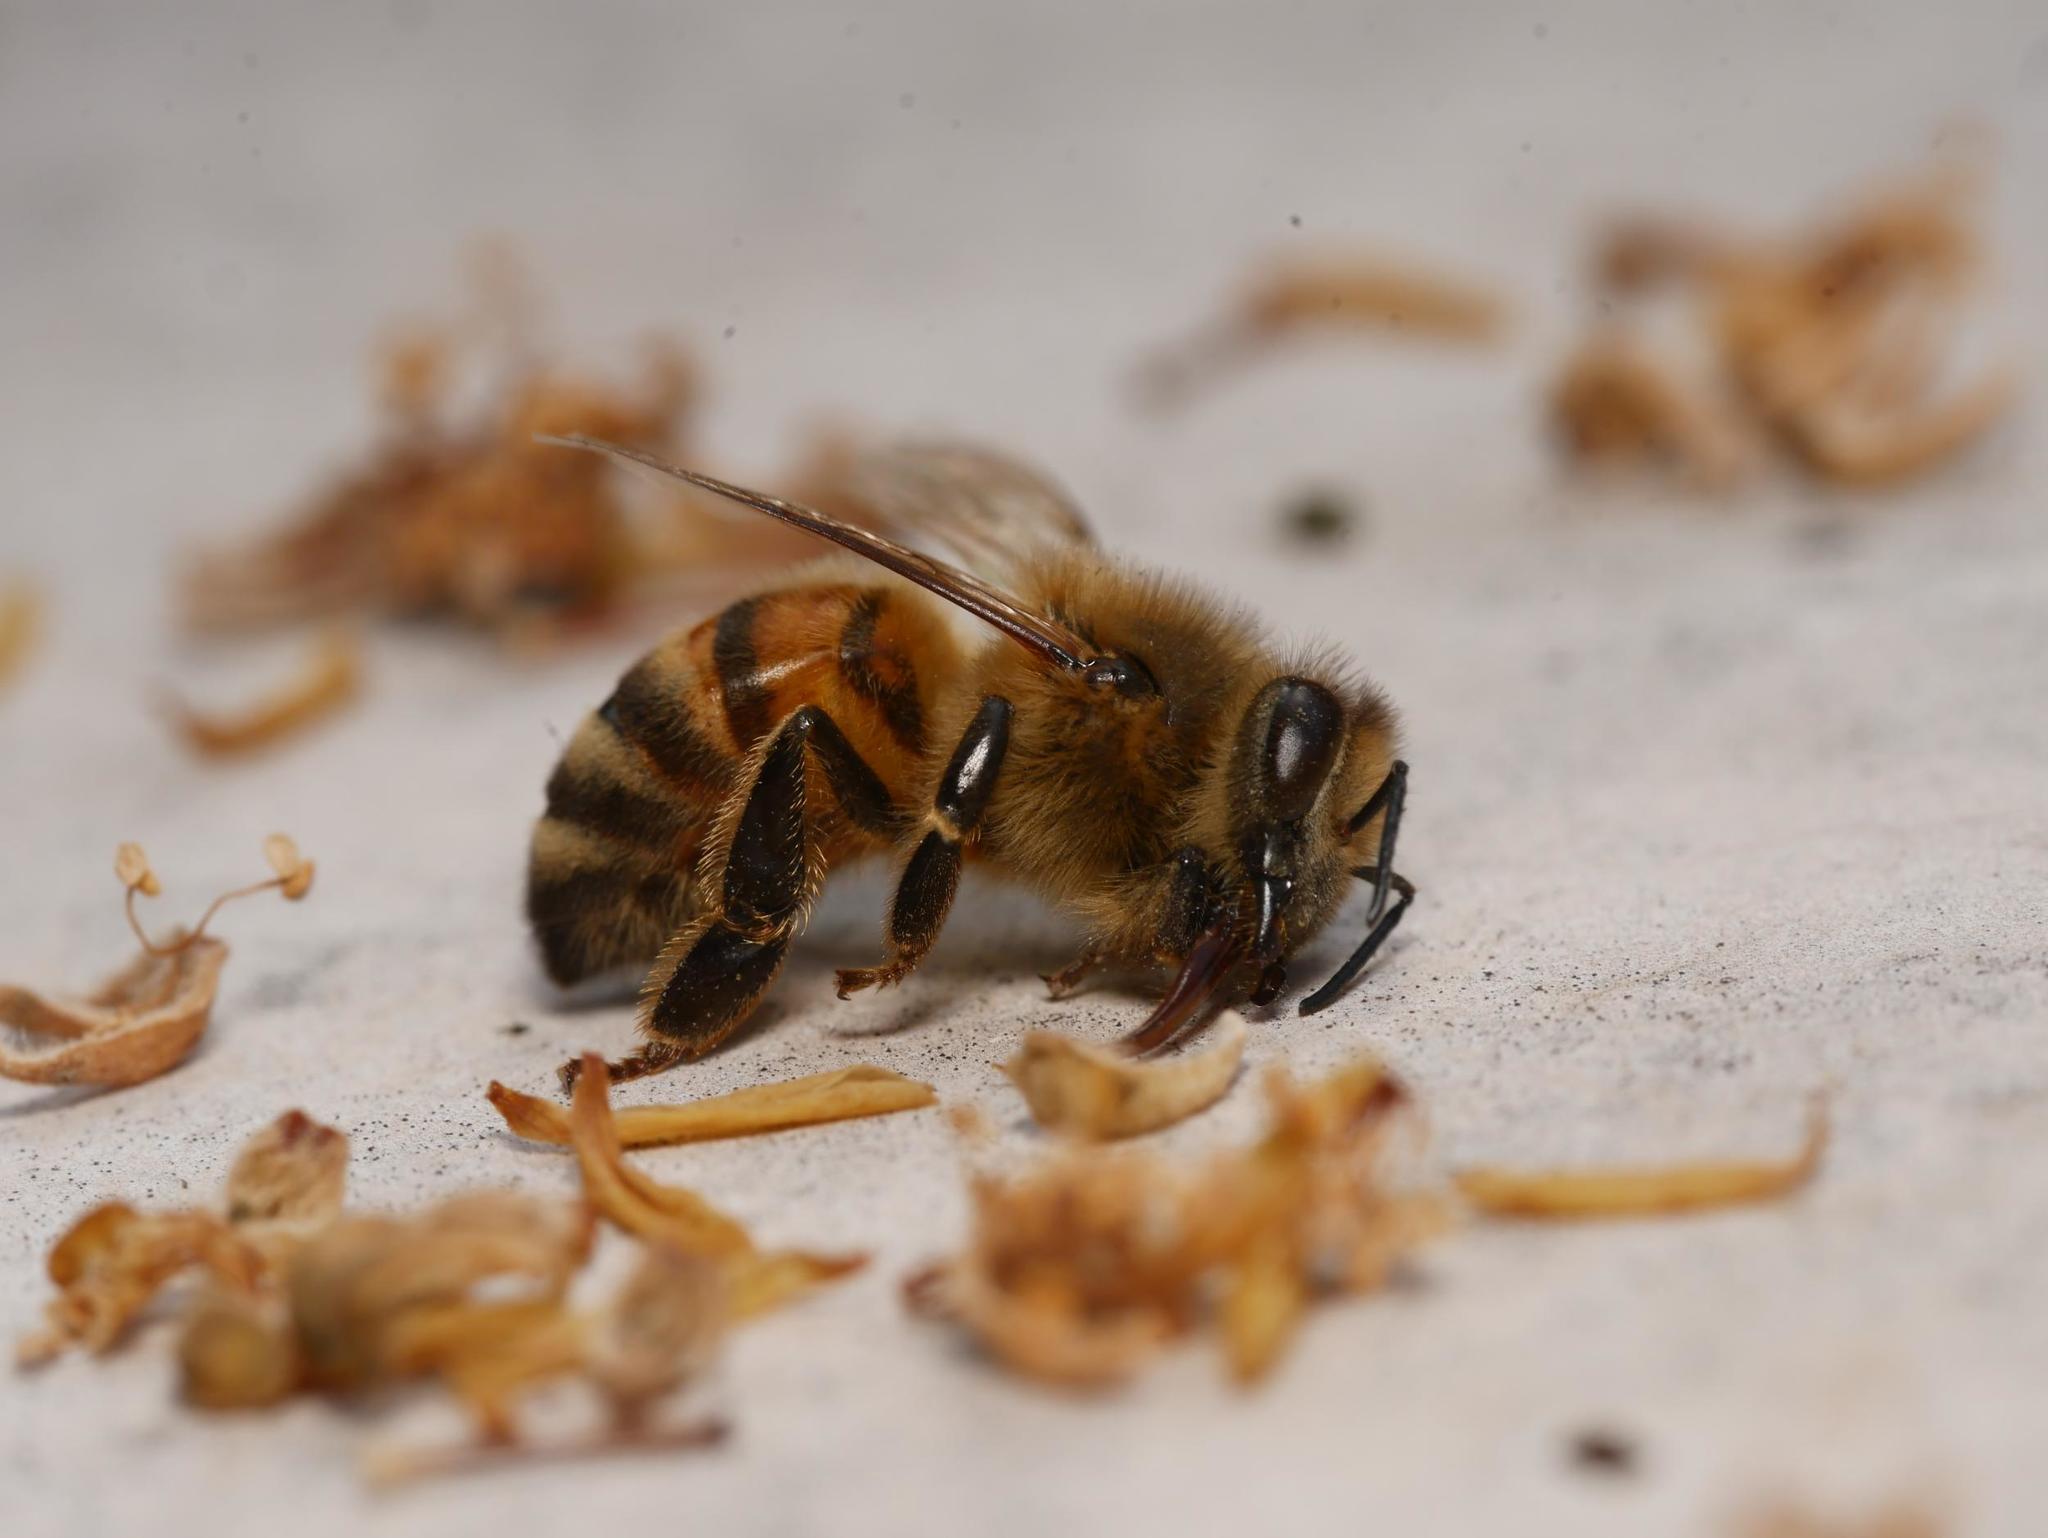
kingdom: Animalia
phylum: Arthropoda
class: Insecta
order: Hymenoptera
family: Apidae
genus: Apis
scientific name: Apis mellifera
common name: Honey bee
